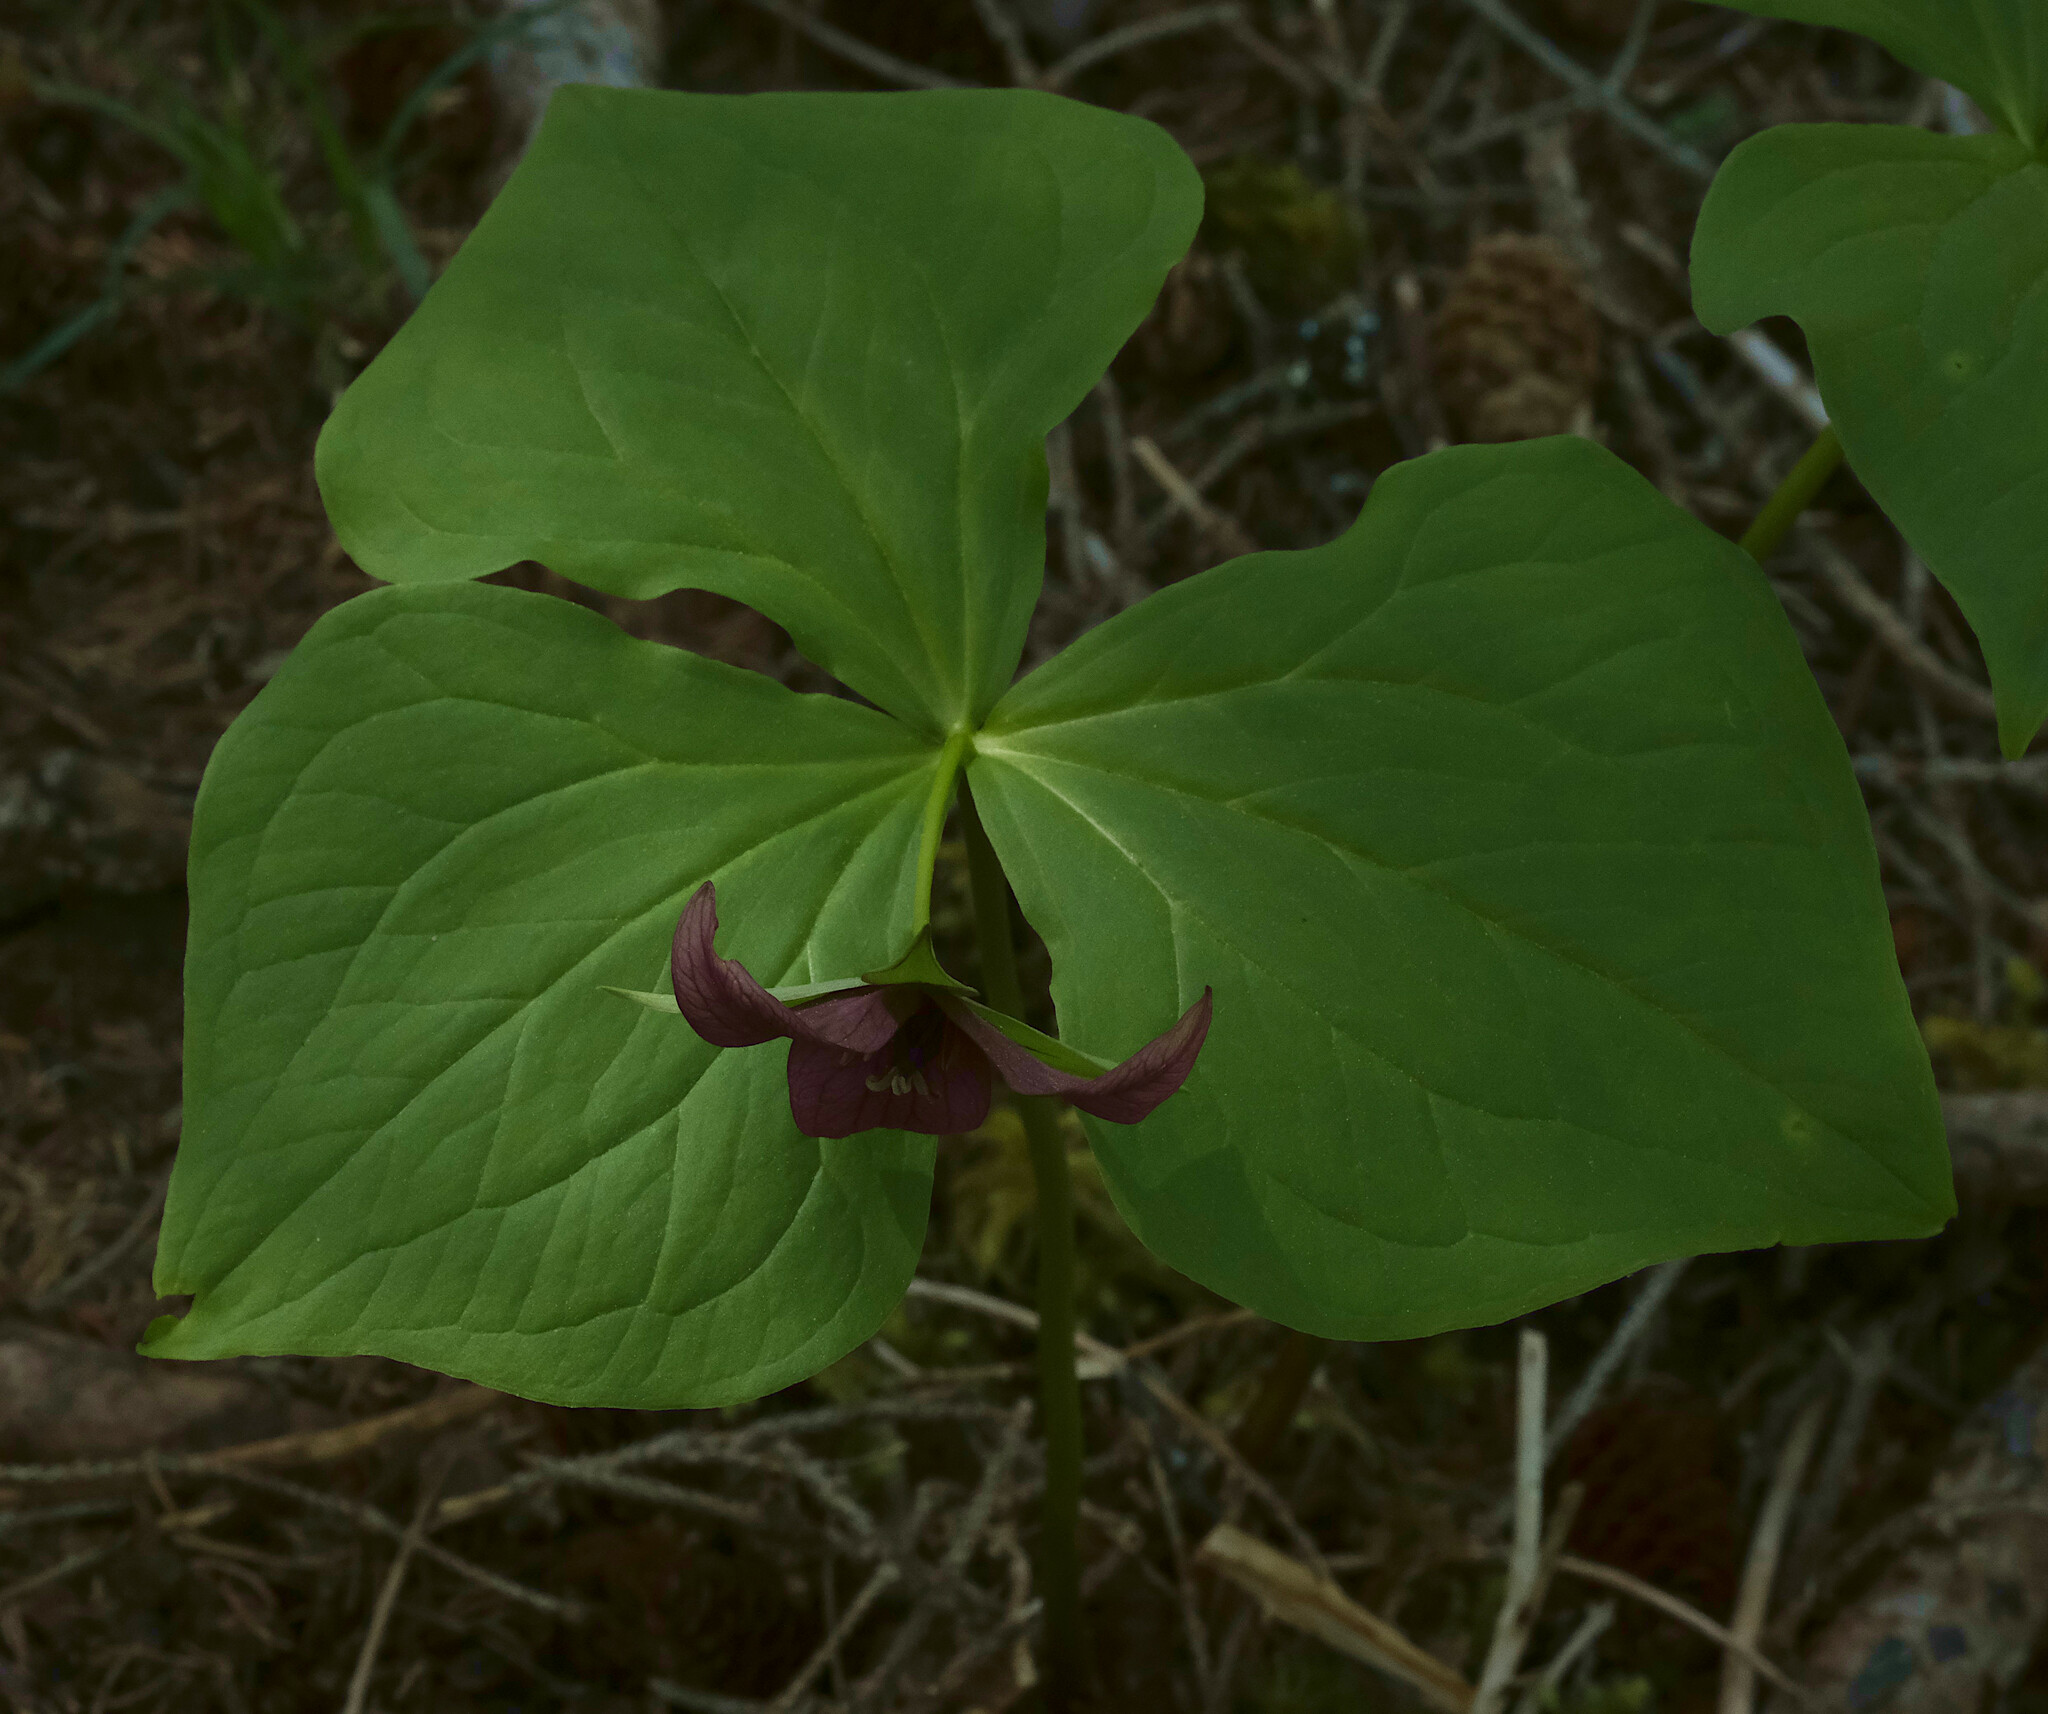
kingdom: Plantae
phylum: Tracheophyta
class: Liliopsida
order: Liliales
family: Melanthiaceae
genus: Trillium
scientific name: Trillium erectum
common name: Purple trillium
